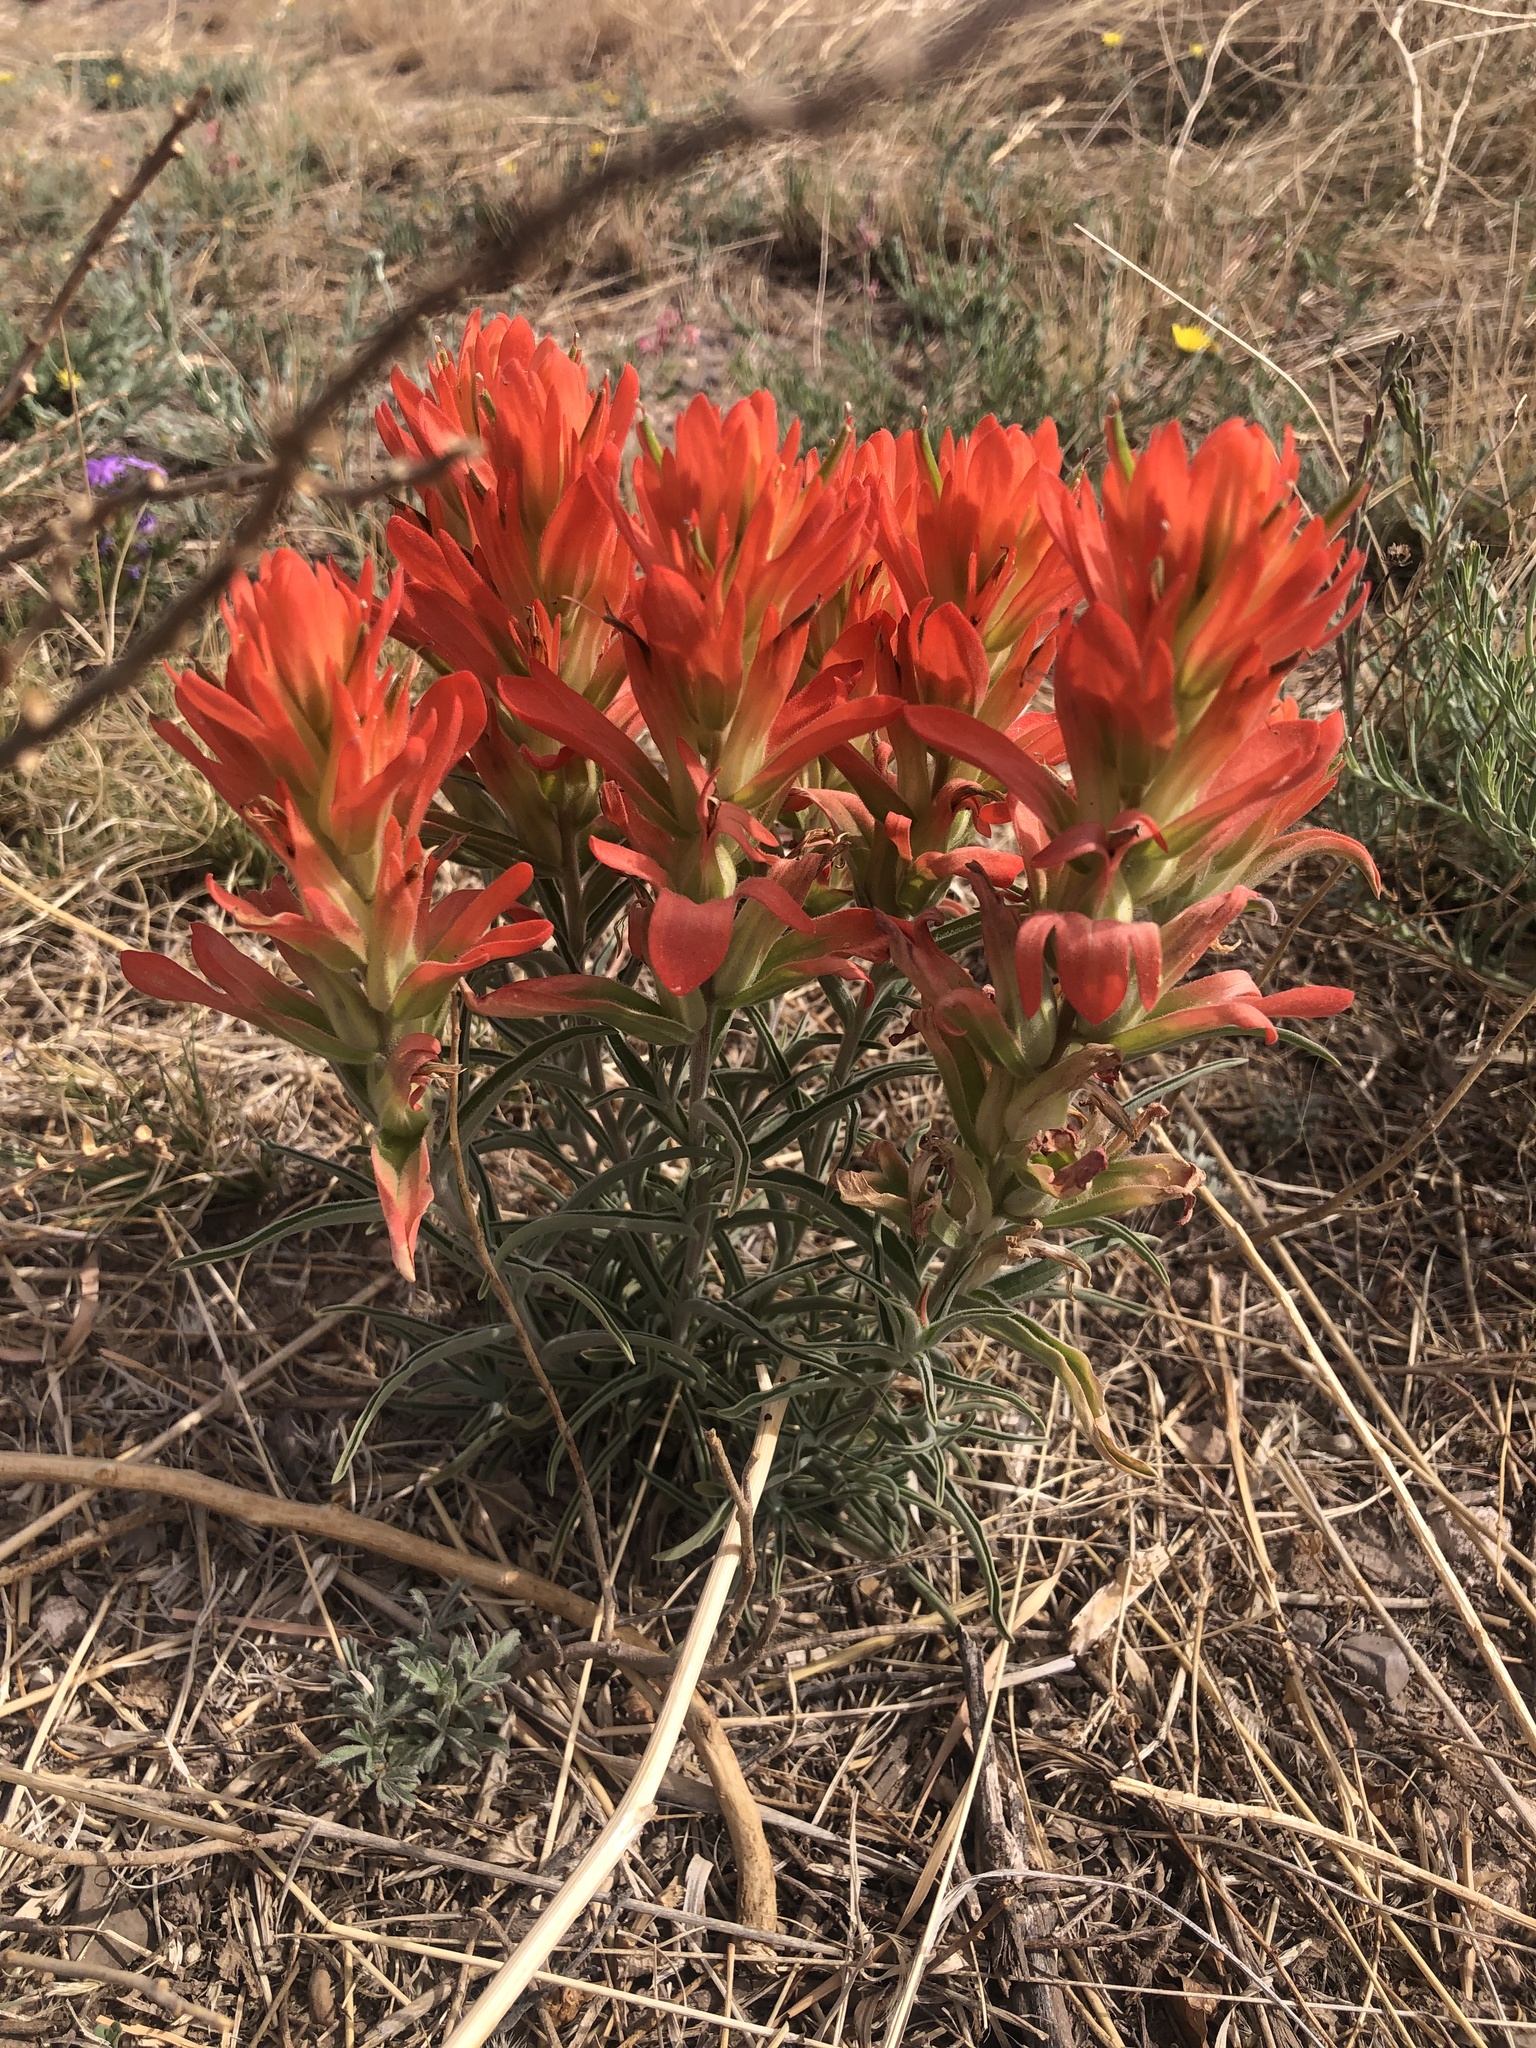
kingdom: Plantae
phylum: Tracheophyta
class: Magnoliopsida
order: Lamiales
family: Orobanchaceae
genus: Castilleja
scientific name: Castilleja integra
